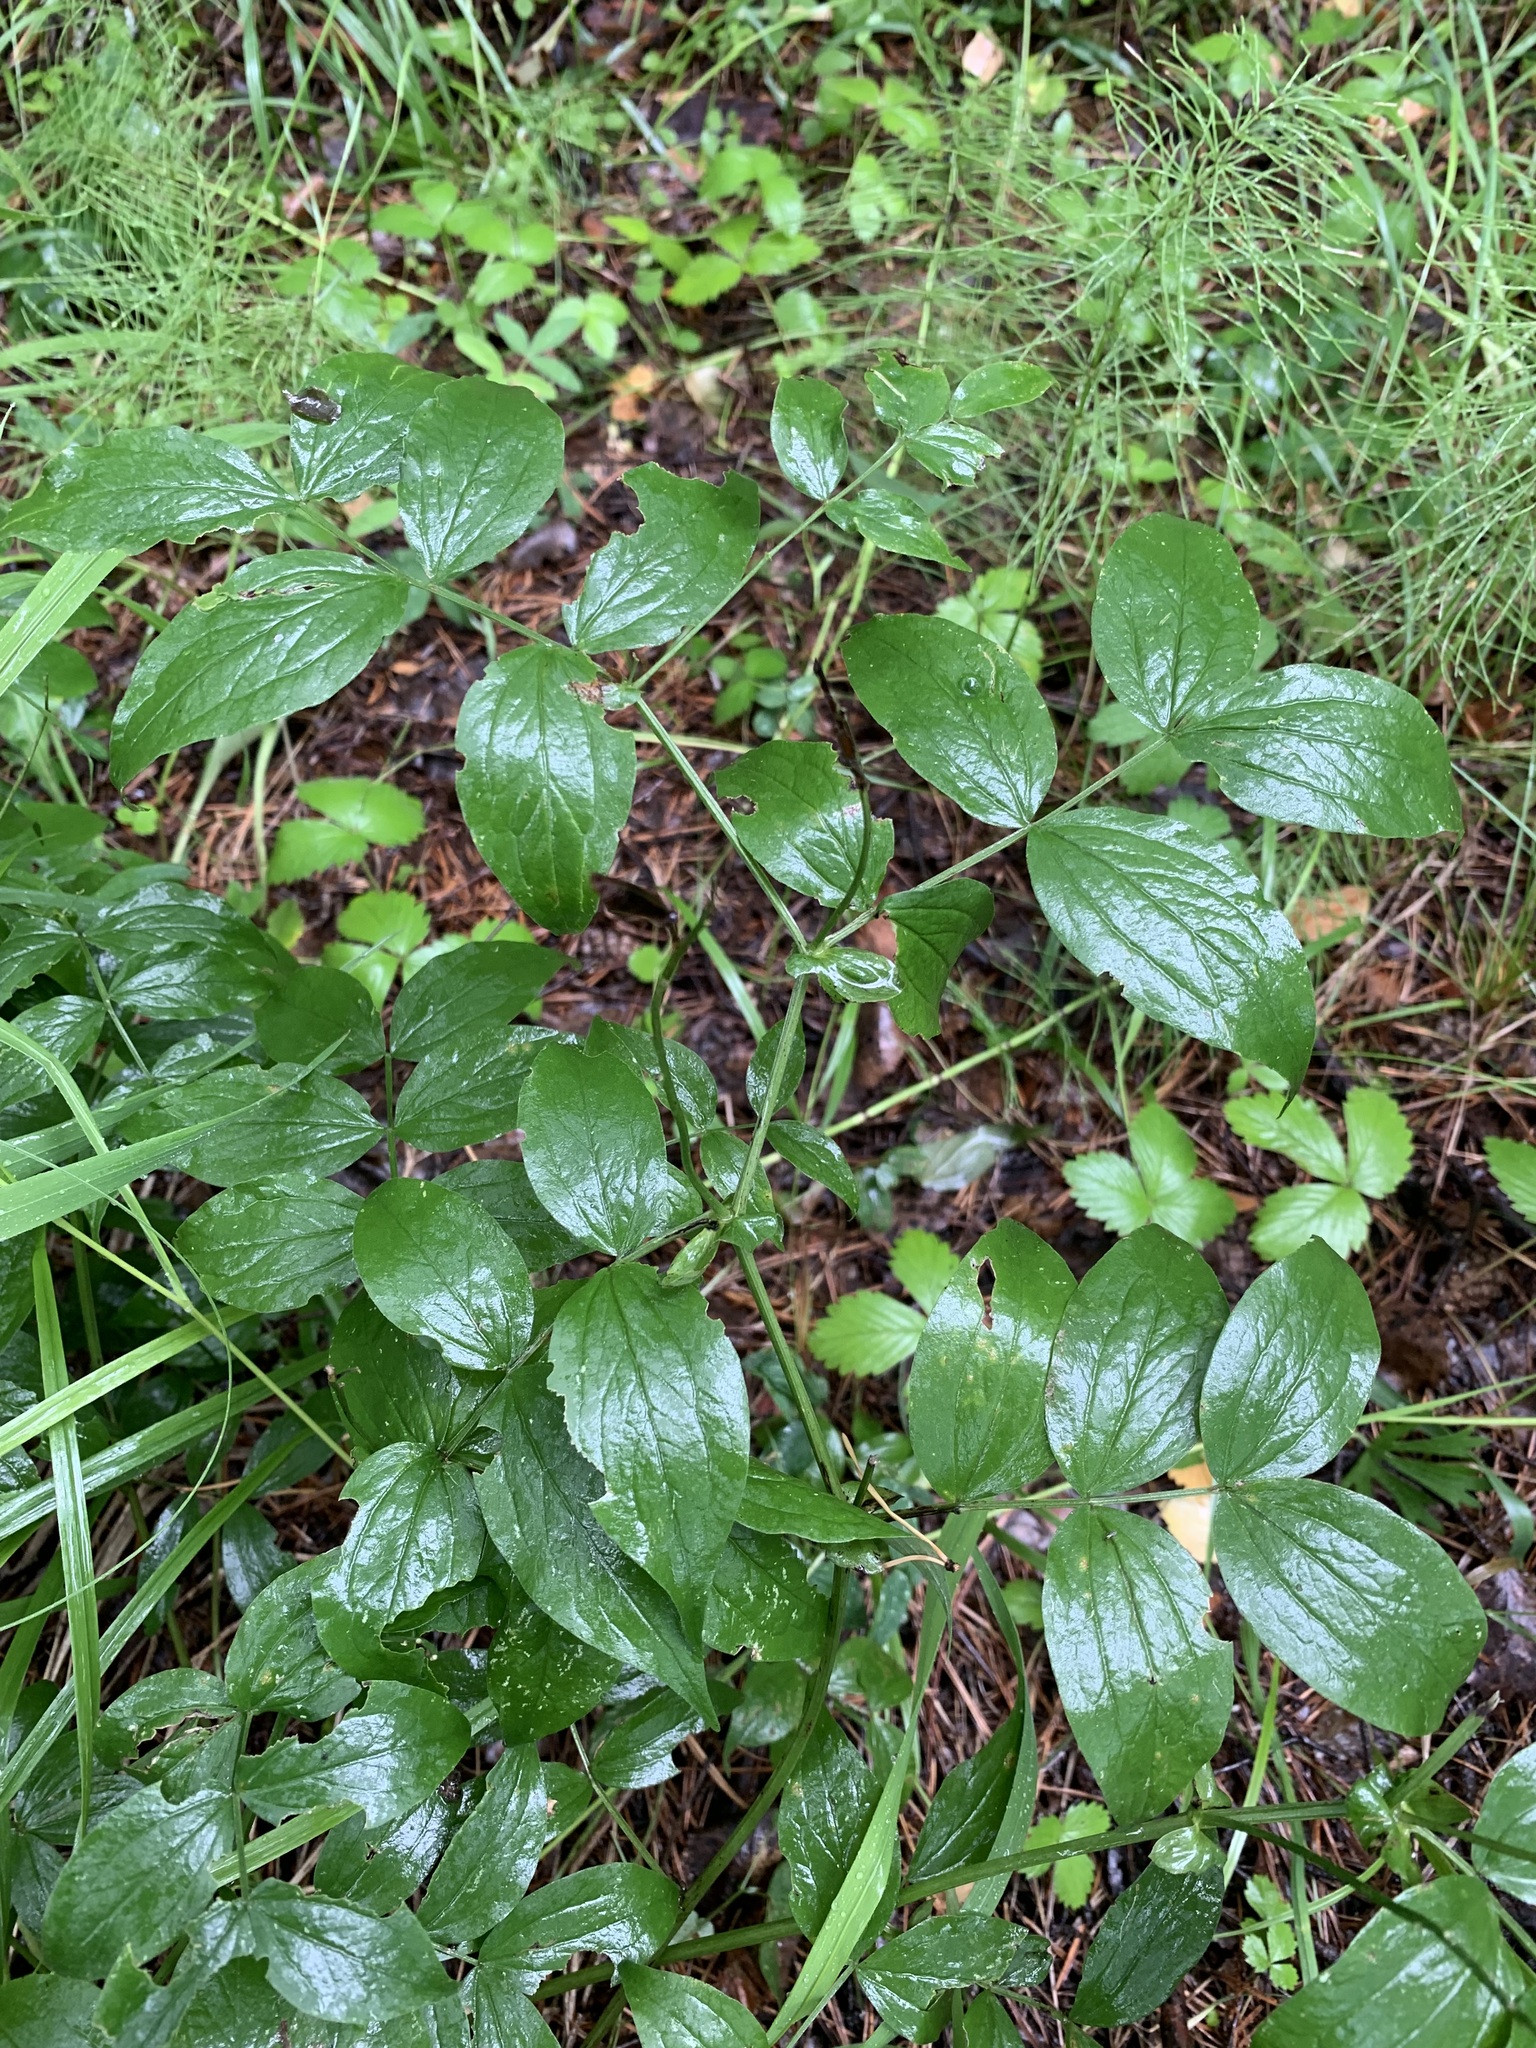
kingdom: Plantae
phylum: Tracheophyta
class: Magnoliopsida
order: Fabales
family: Fabaceae
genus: Lathyrus
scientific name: Lathyrus vernus
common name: Spring pea
